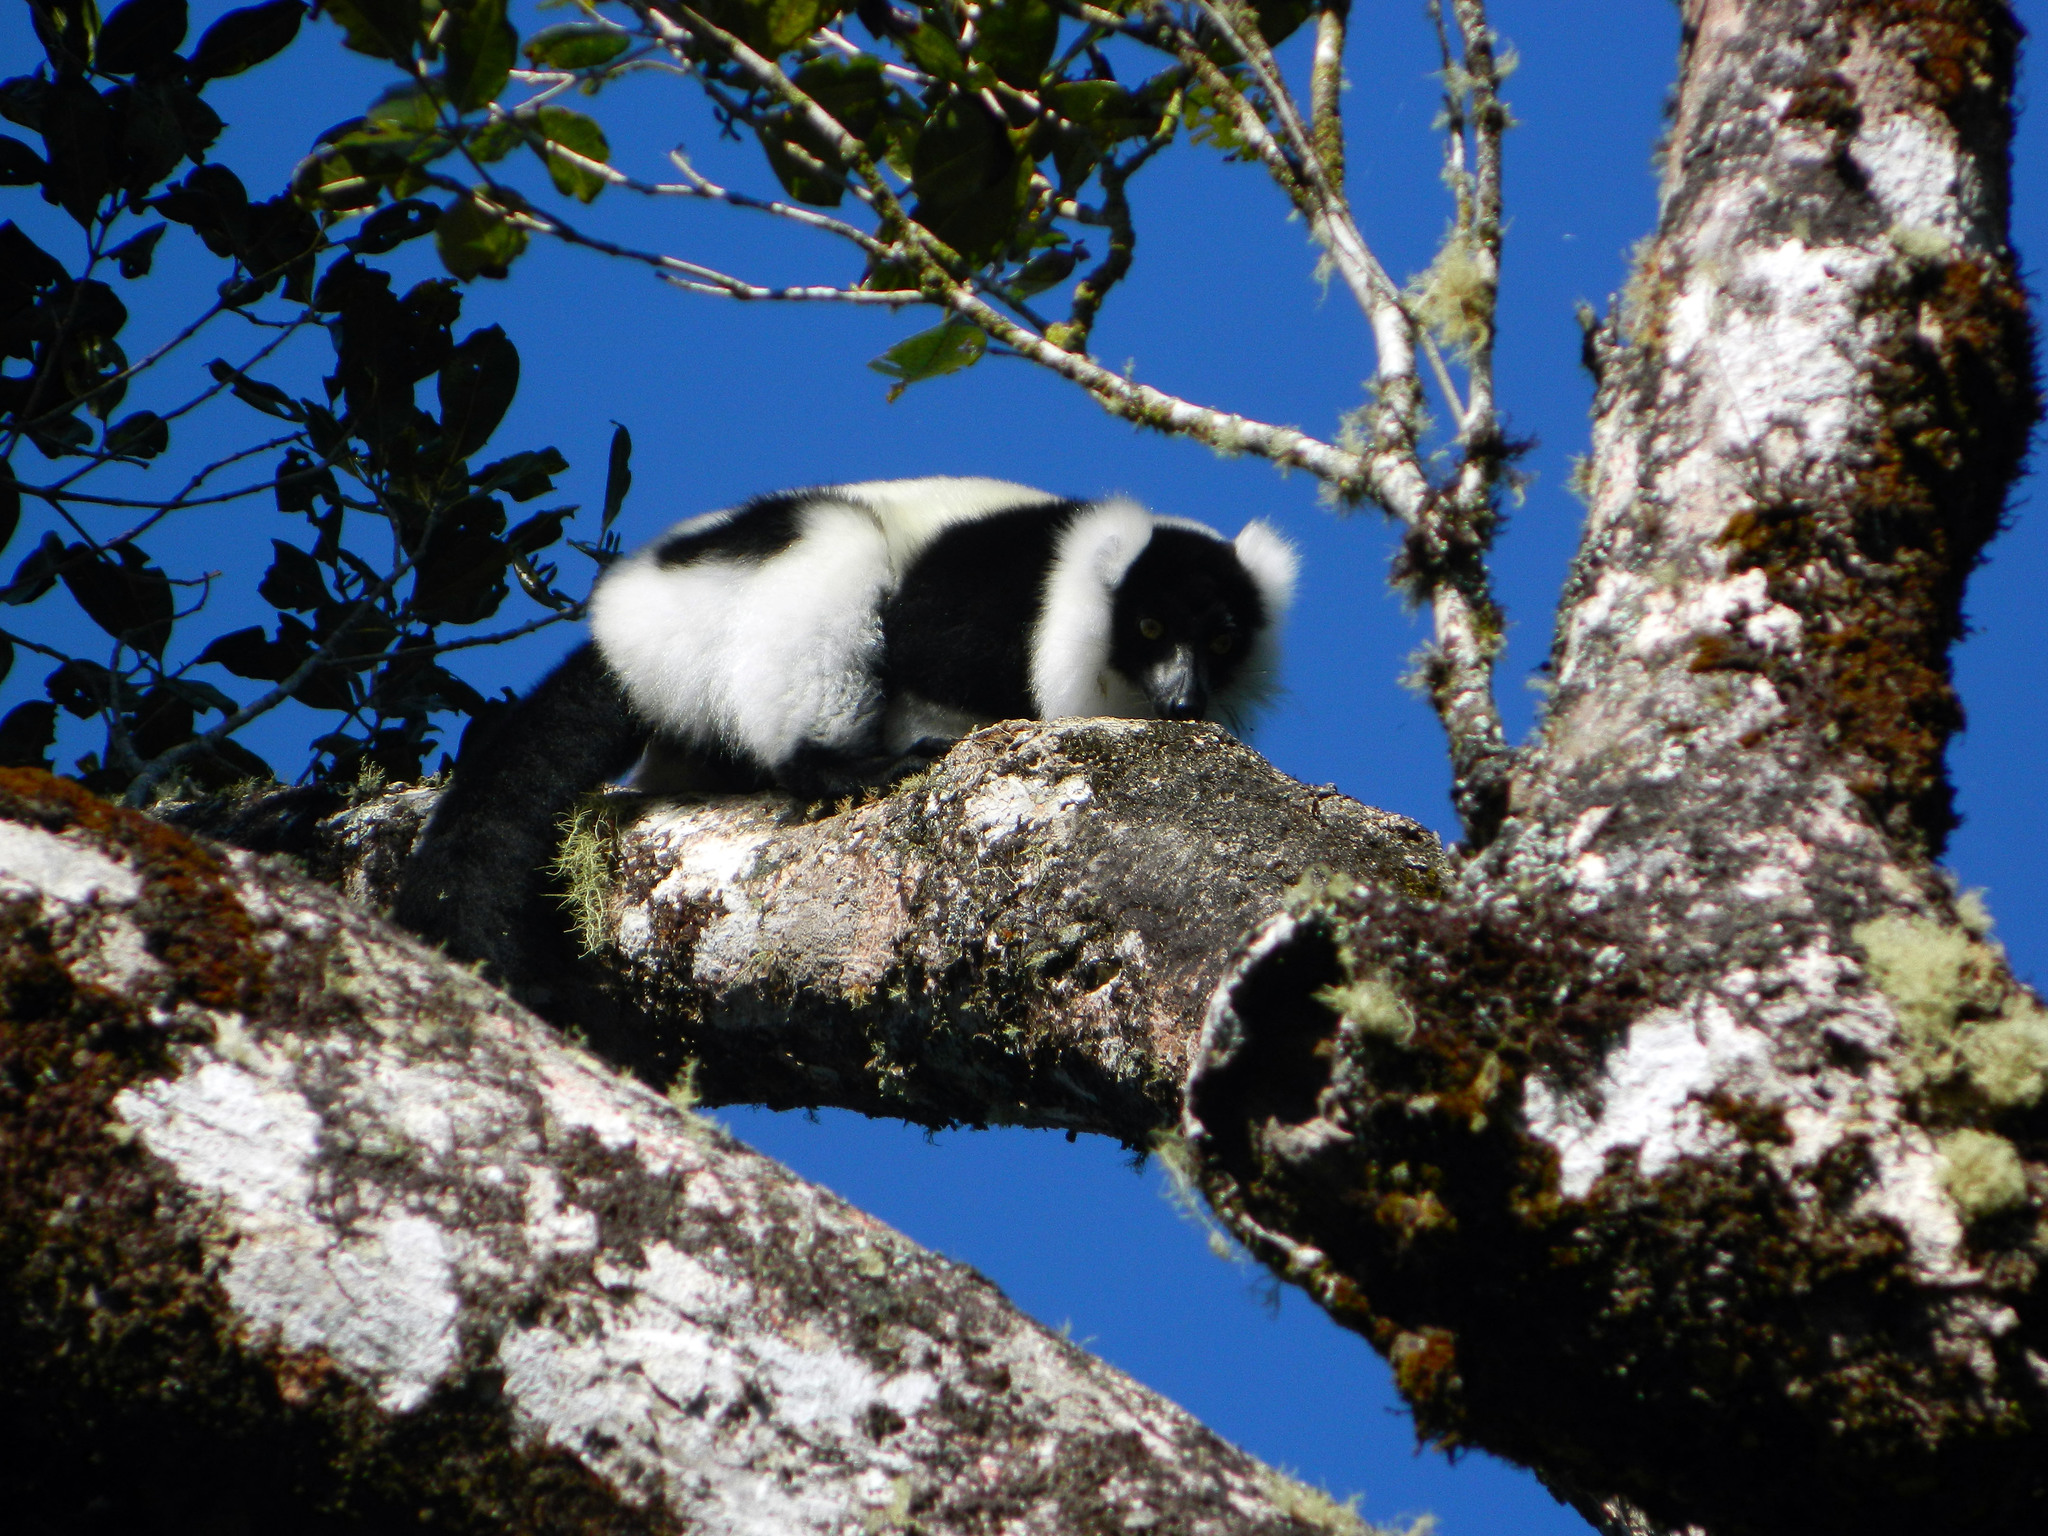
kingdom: Animalia
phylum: Chordata
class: Mammalia
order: Primates
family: Lemuridae
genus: Varecia
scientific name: Varecia variegata
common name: Black-and-white ruffed lemur
